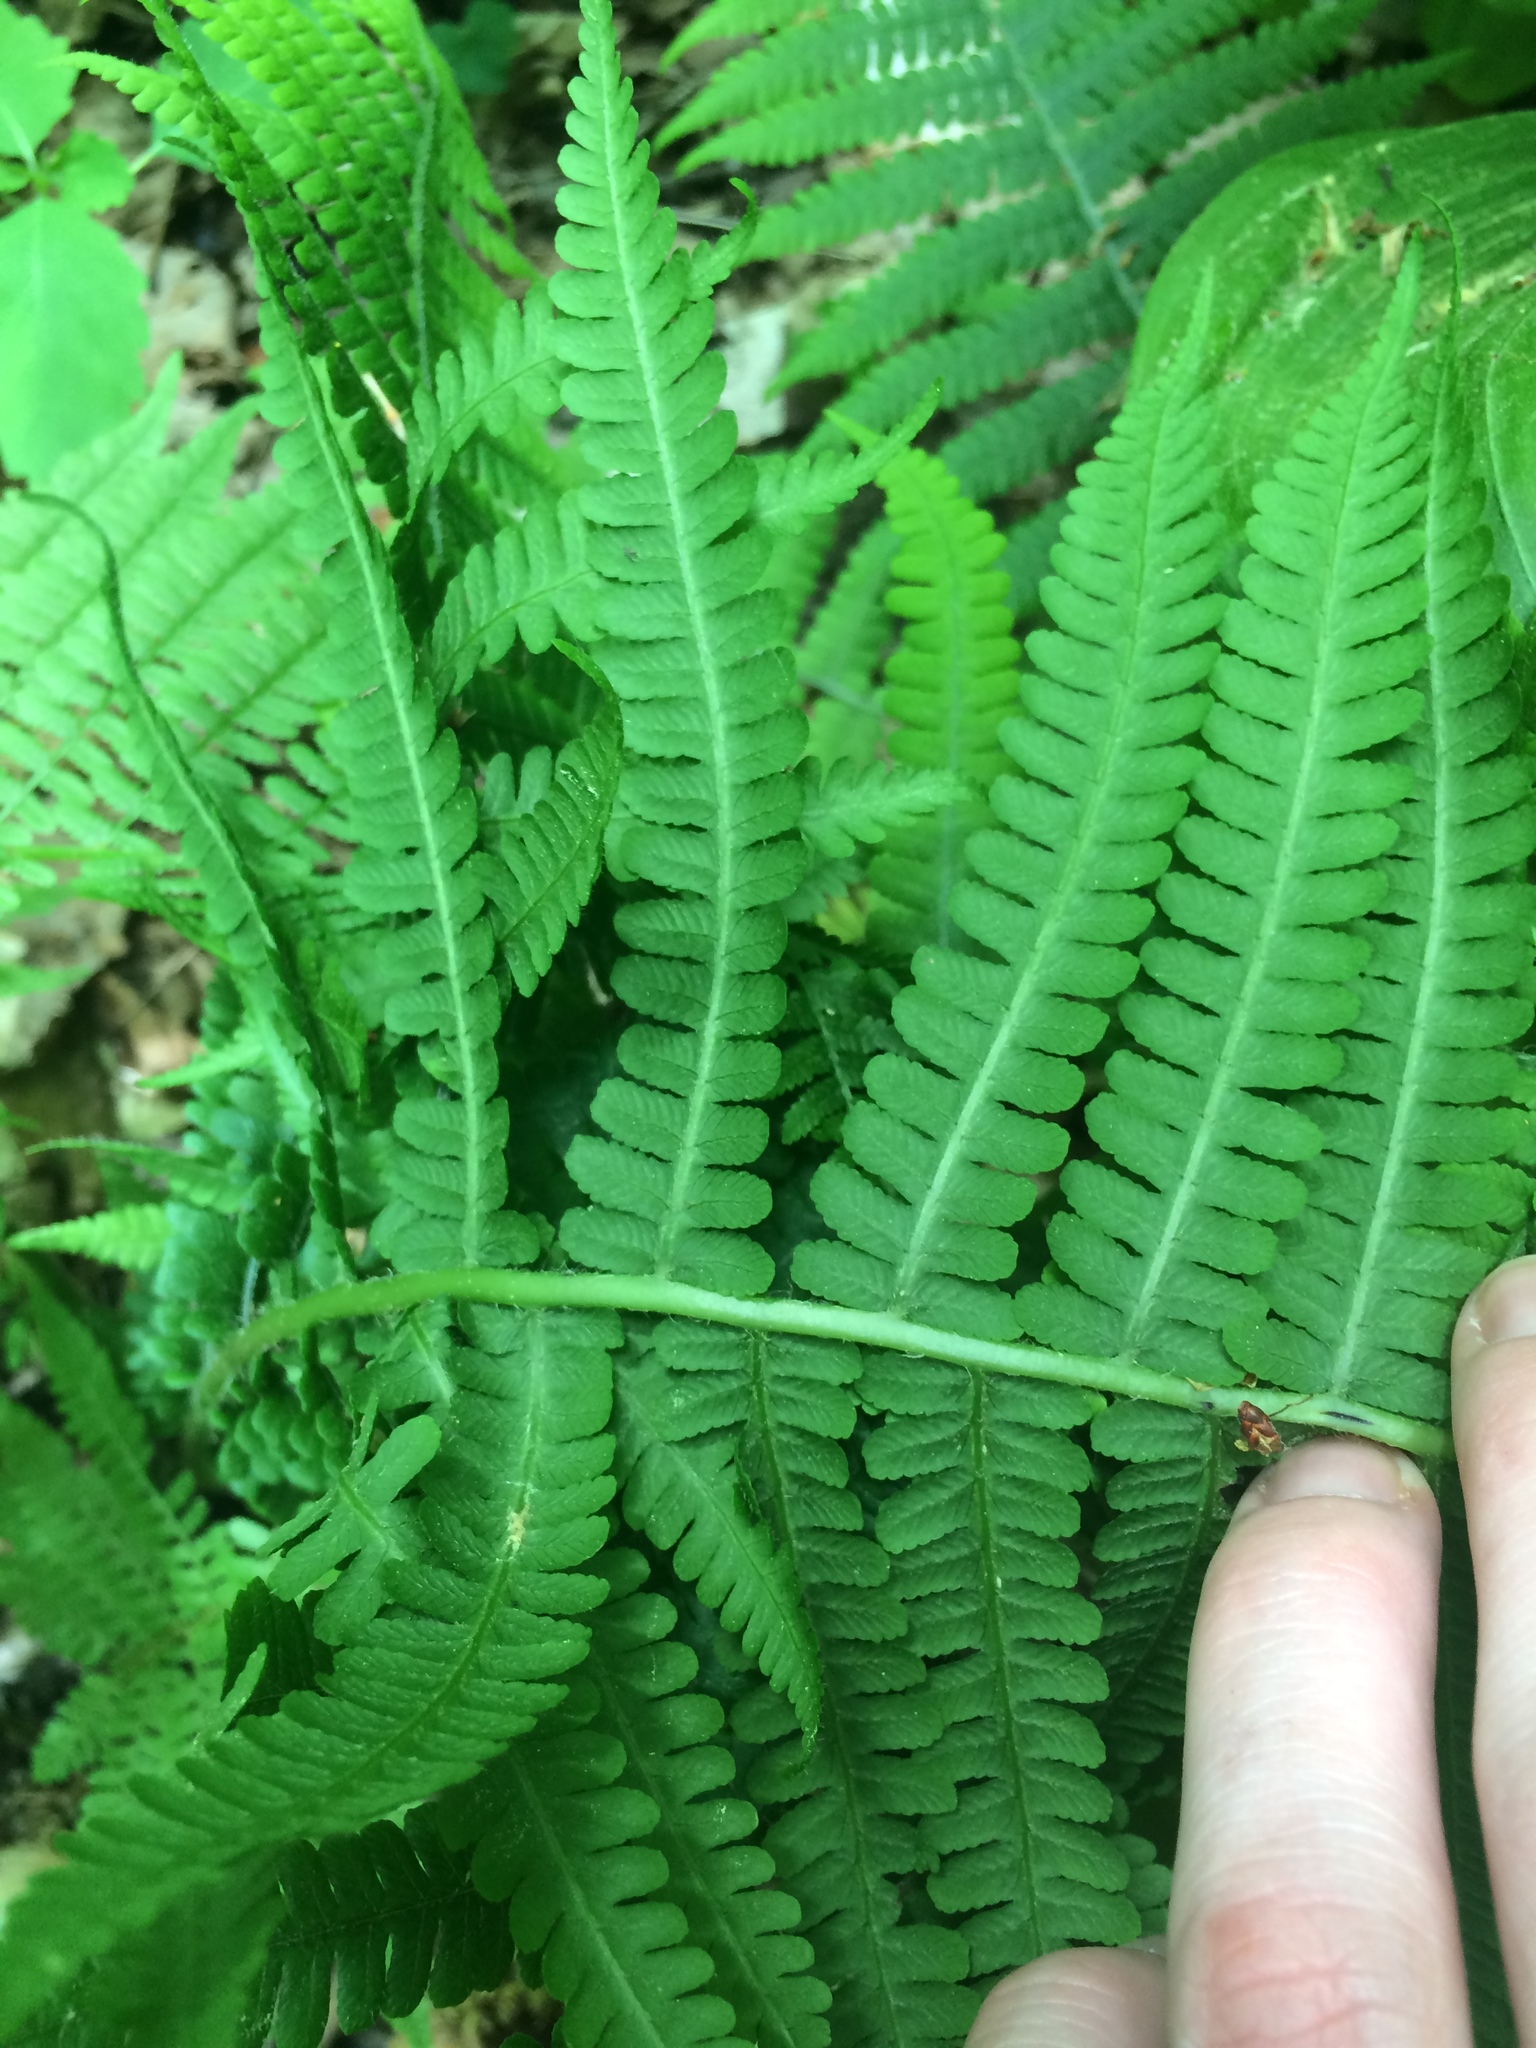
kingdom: Plantae
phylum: Tracheophyta
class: Polypodiopsida
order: Polypodiales
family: Athyriaceae
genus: Deparia
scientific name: Deparia acrostichoides
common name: Silver false spleenwort
